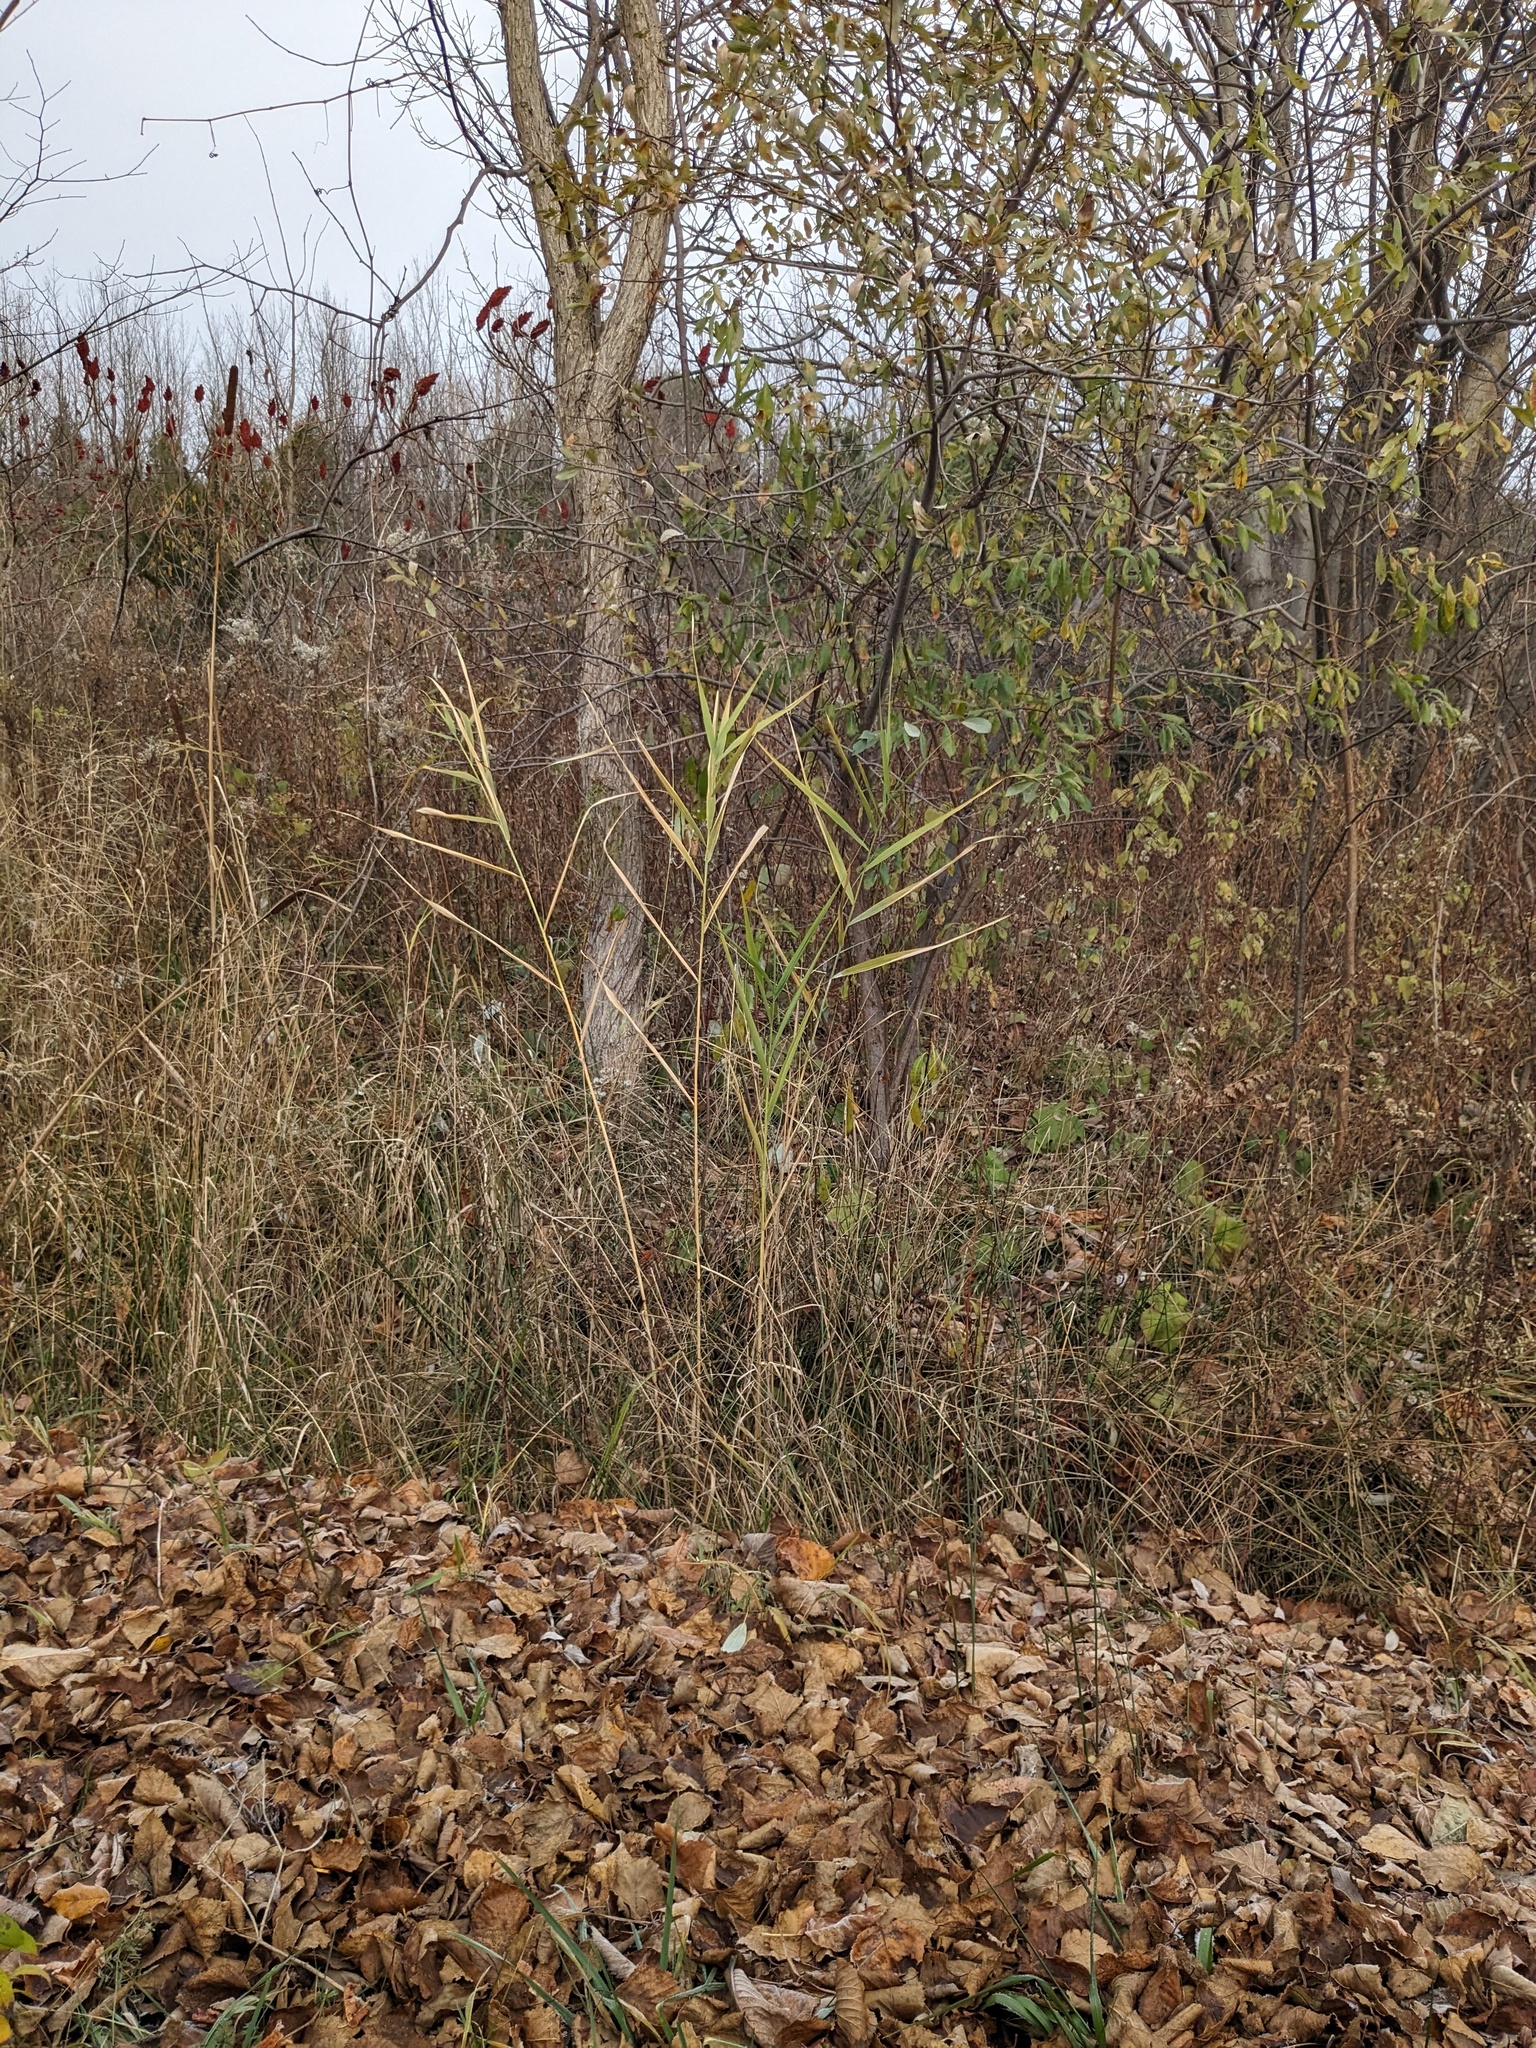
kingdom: Plantae
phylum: Tracheophyta
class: Liliopsida
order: Poales
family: Poaceae
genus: Phragmites
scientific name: Phragmites australis
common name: Common reed
